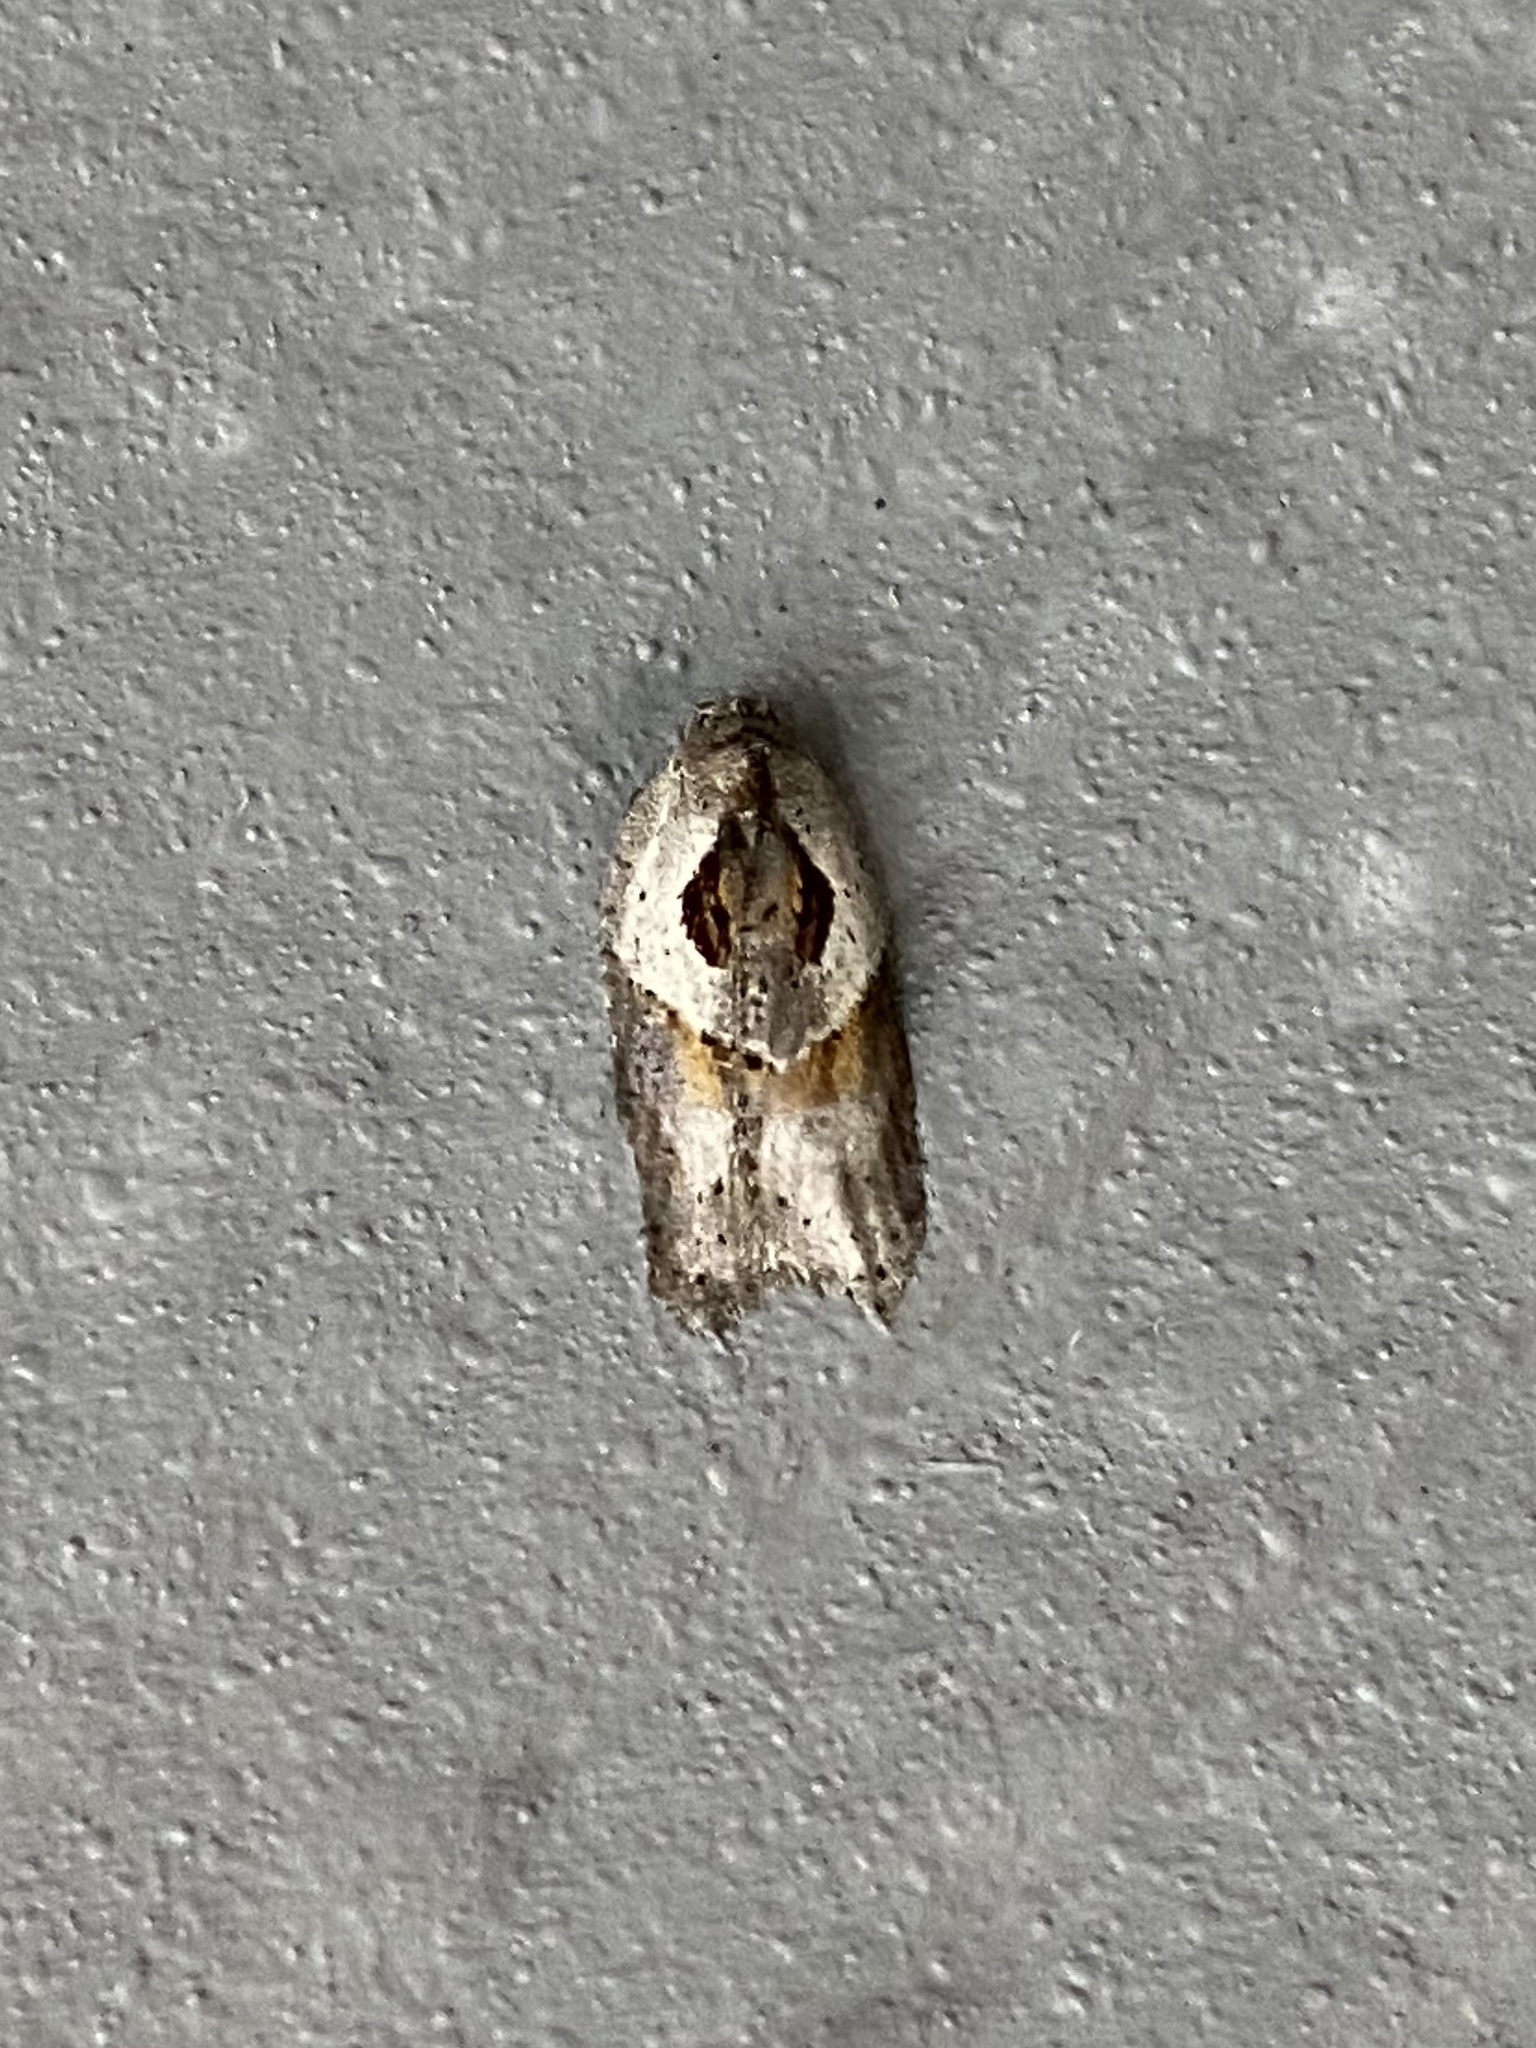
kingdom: Animalia
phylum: Arthropoda
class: Insecta
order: Lepidoptera
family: Tortricidae
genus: Acleris
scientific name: Acleris maculidorsana
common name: Stained-back leafroller moth
